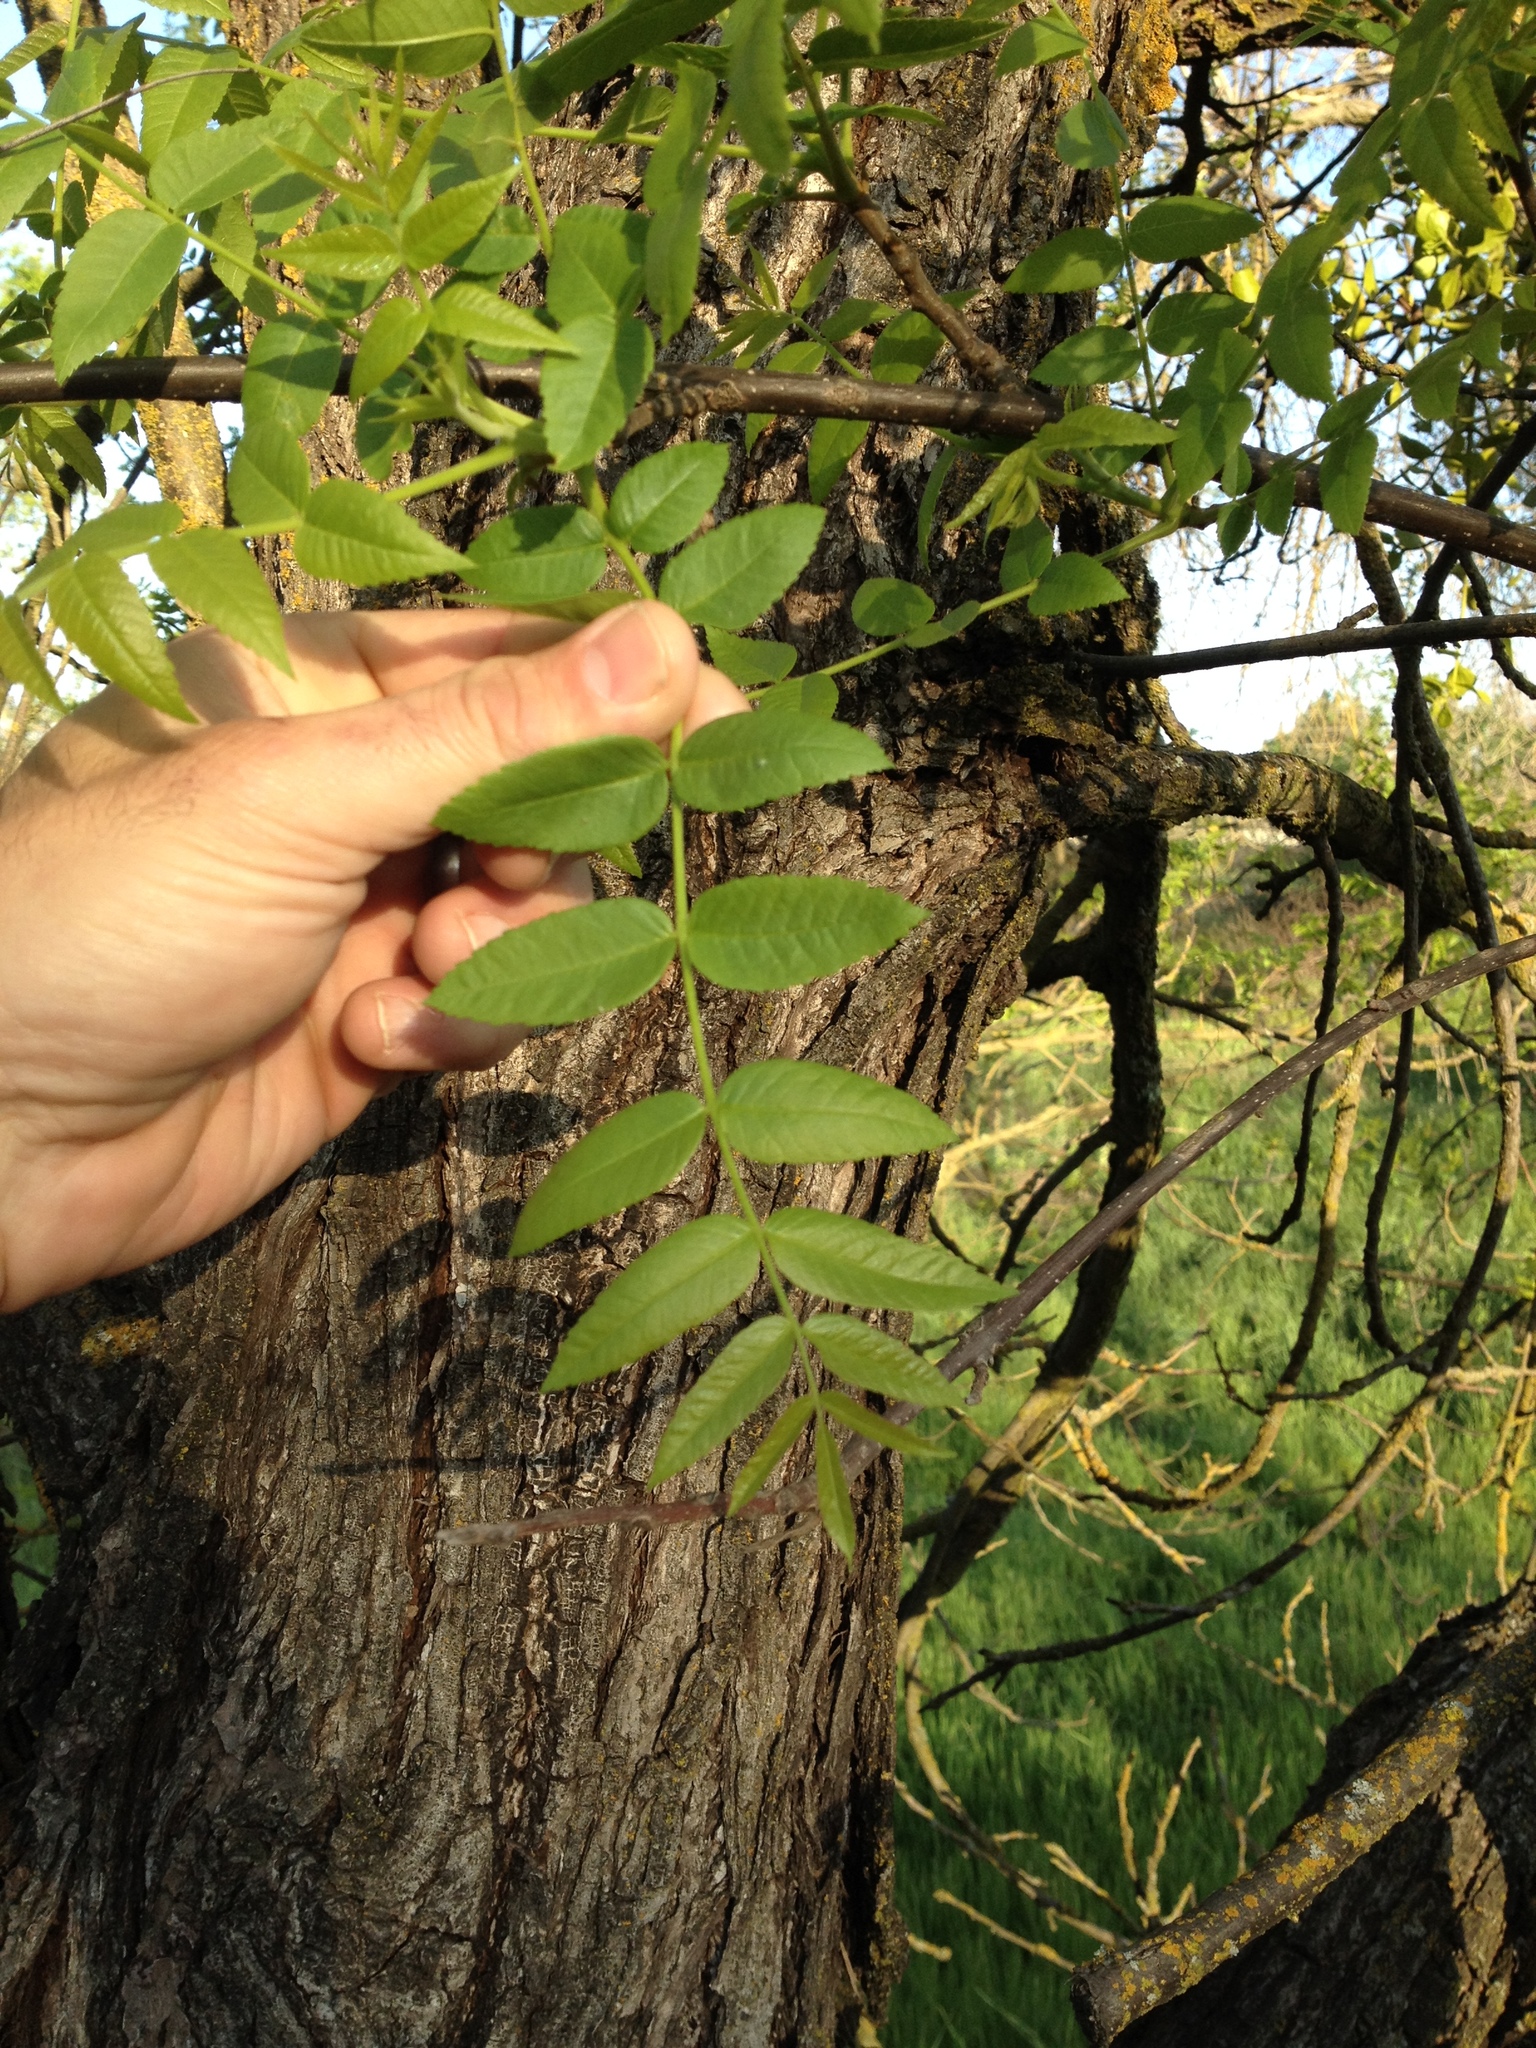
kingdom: Plantae
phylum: Tracheophyta
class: Magnoliopsida
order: Fagales
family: Juglandaceae
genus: Juglans
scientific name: Juglans hindsii
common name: Northern california black walnut
